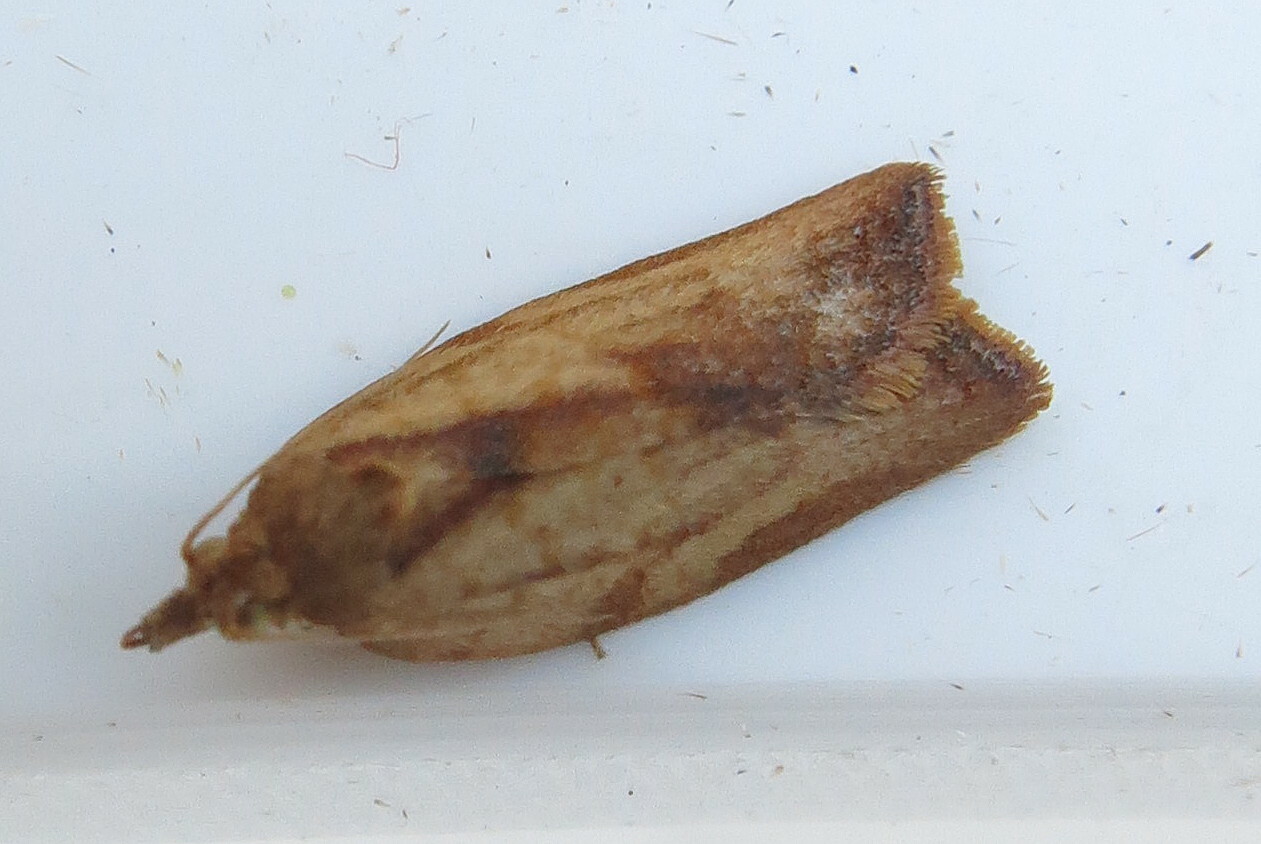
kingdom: Animalia
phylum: Arthropoda
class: Insecta
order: Lepidoptera
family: Tortricidae
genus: Epiphyas
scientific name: Epiphyas postvittana
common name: Light brown apple moth
